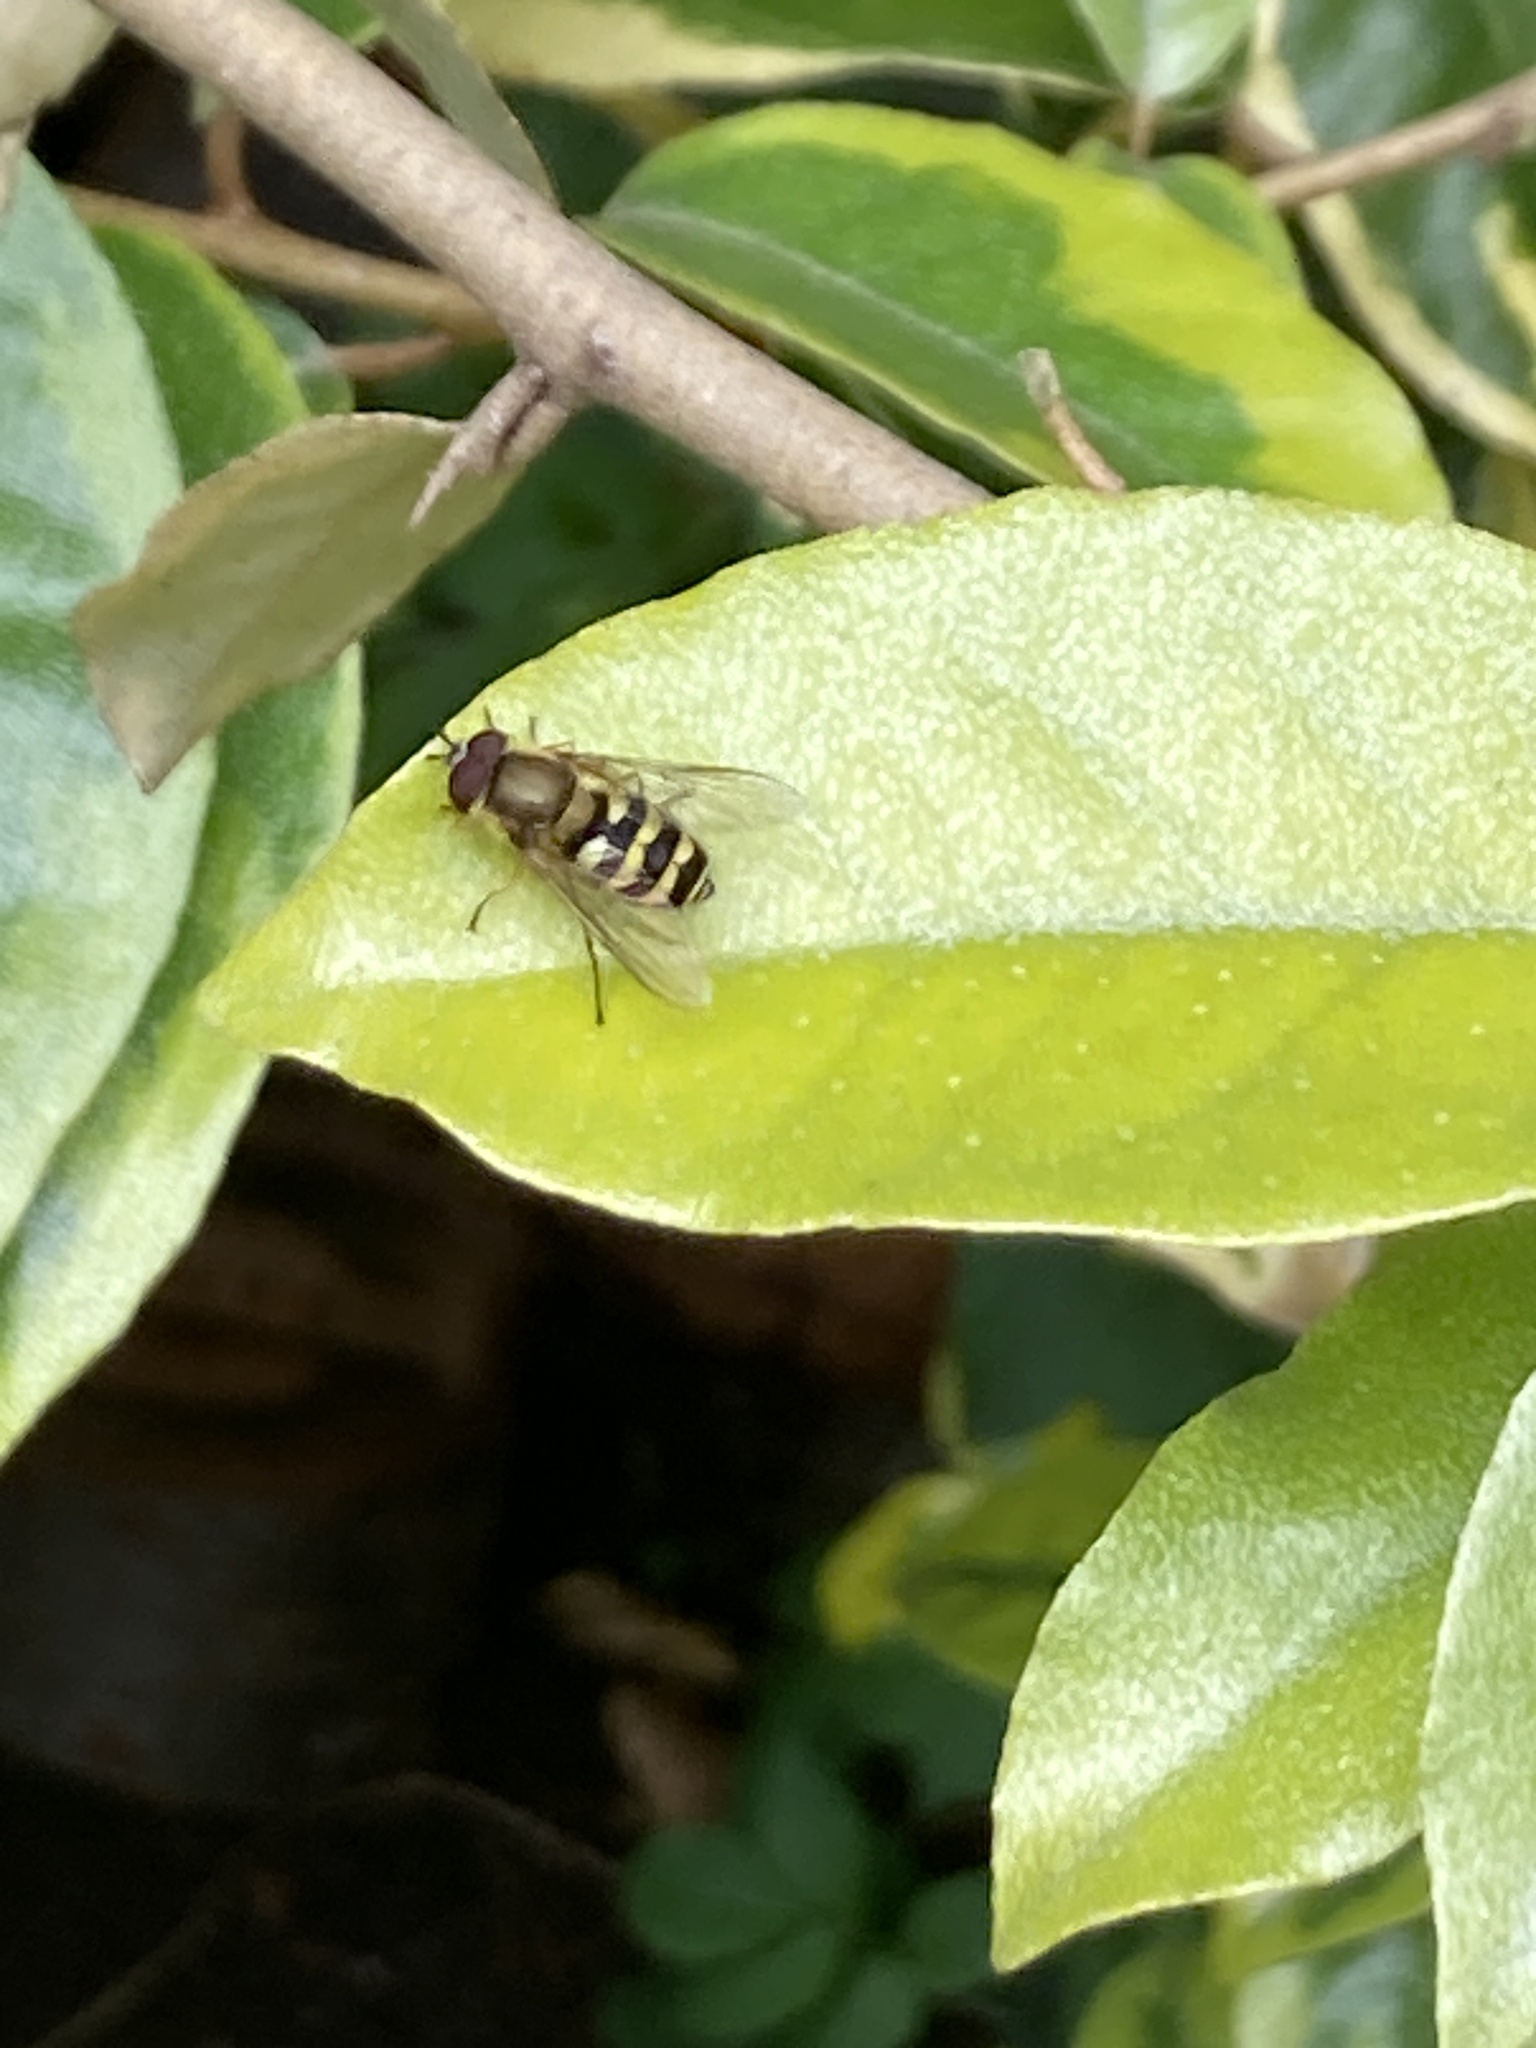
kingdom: Animalia
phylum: Arthropoda
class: Insecta
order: Diptera
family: Syrphidae
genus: Syrphus
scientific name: Syrphus
